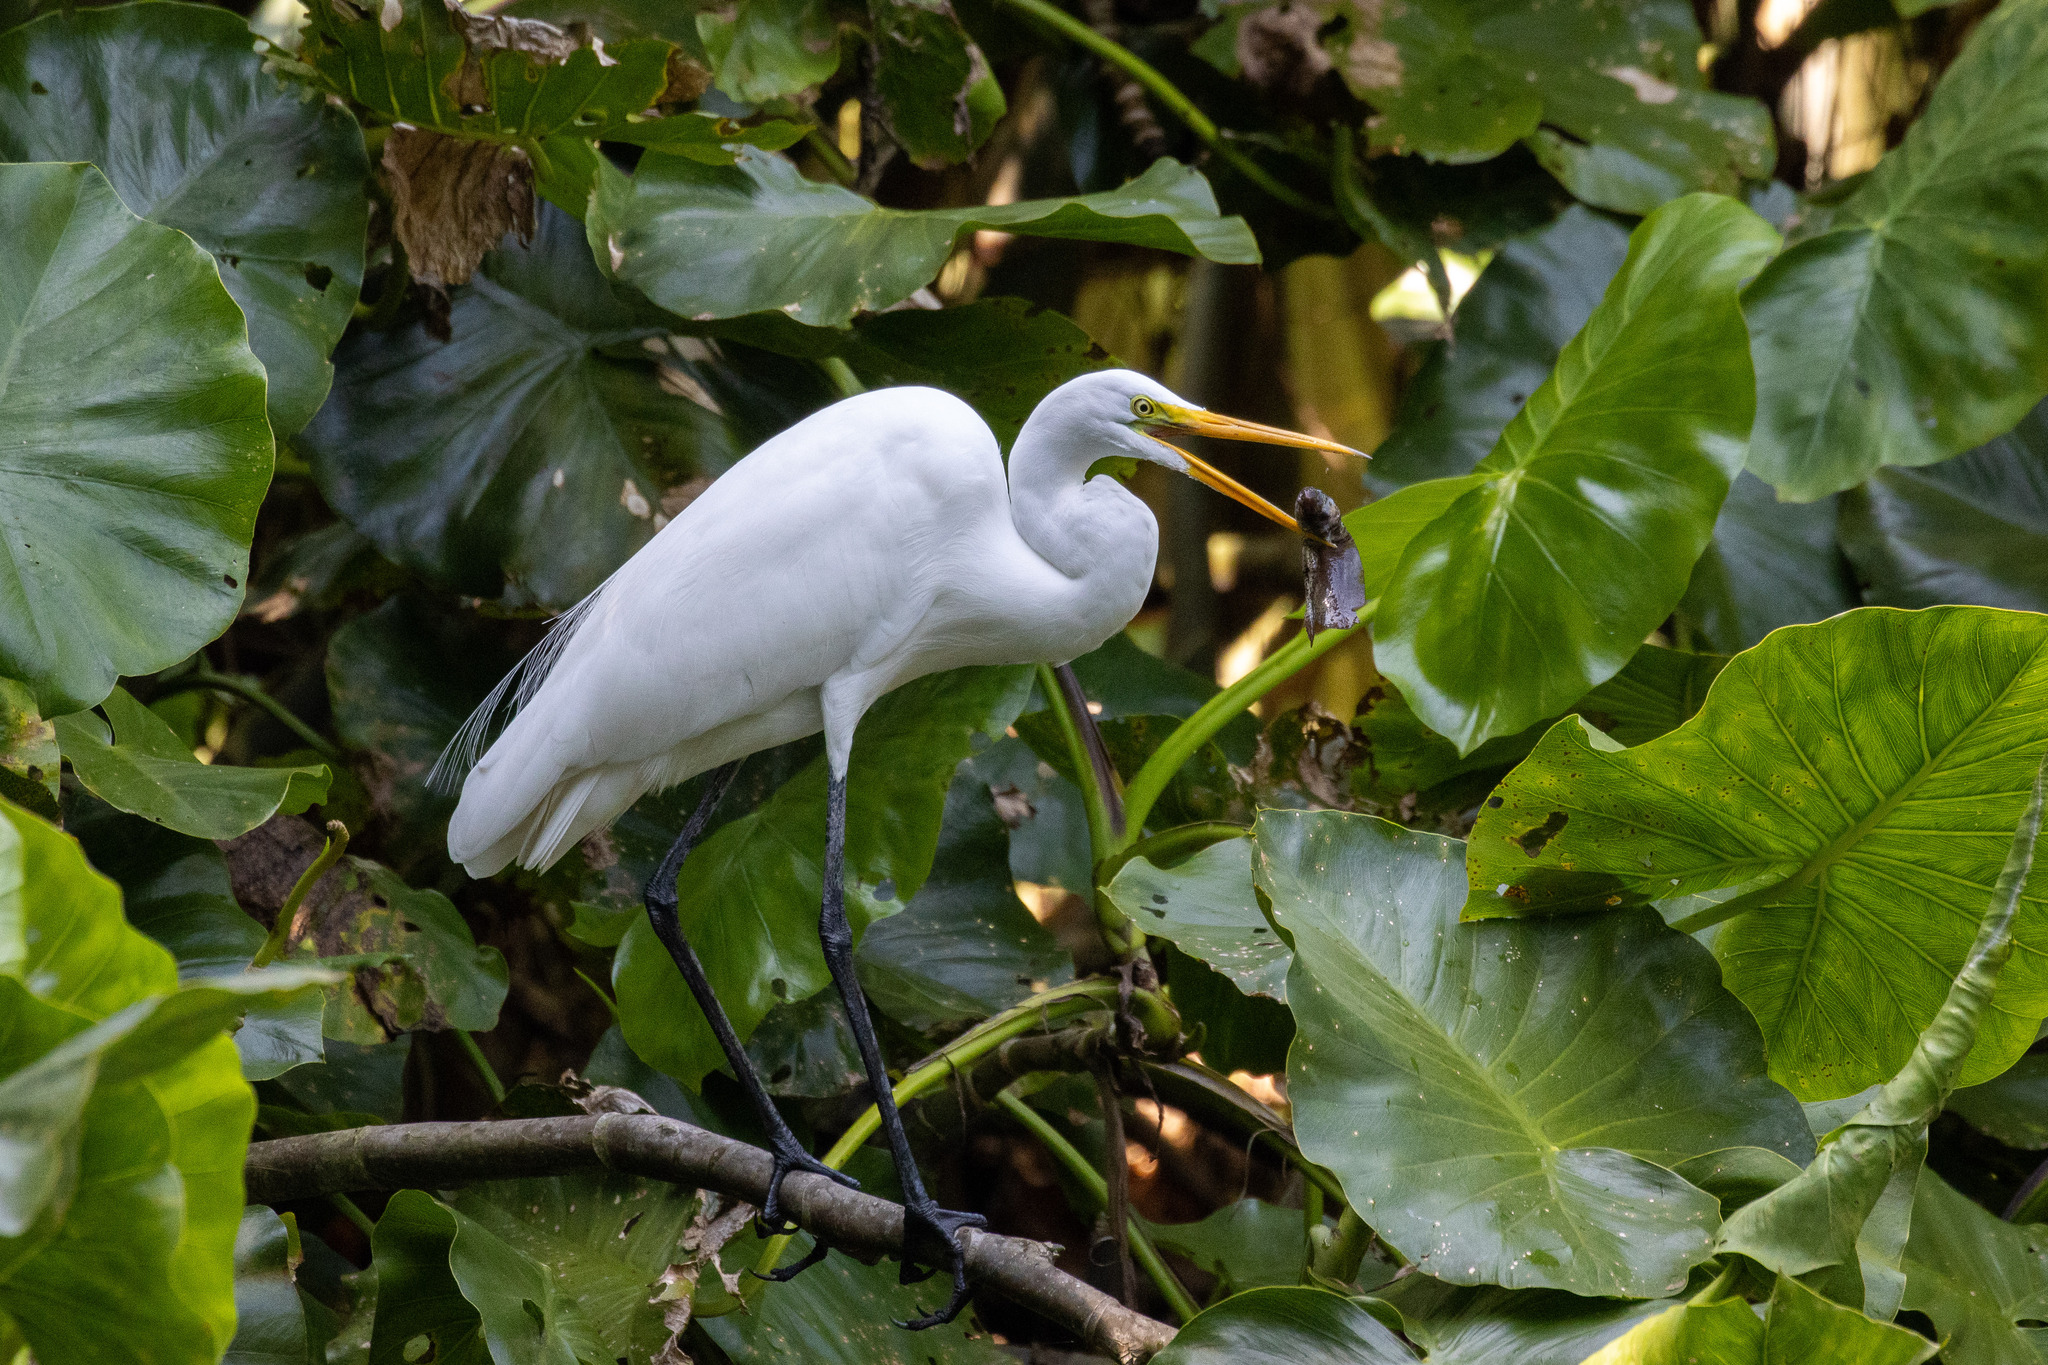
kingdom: Animalia
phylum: Chordata
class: Aves
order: Pelecaniformes
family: Ardeidae
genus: Ardea
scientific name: Ardea alba
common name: Great egret
